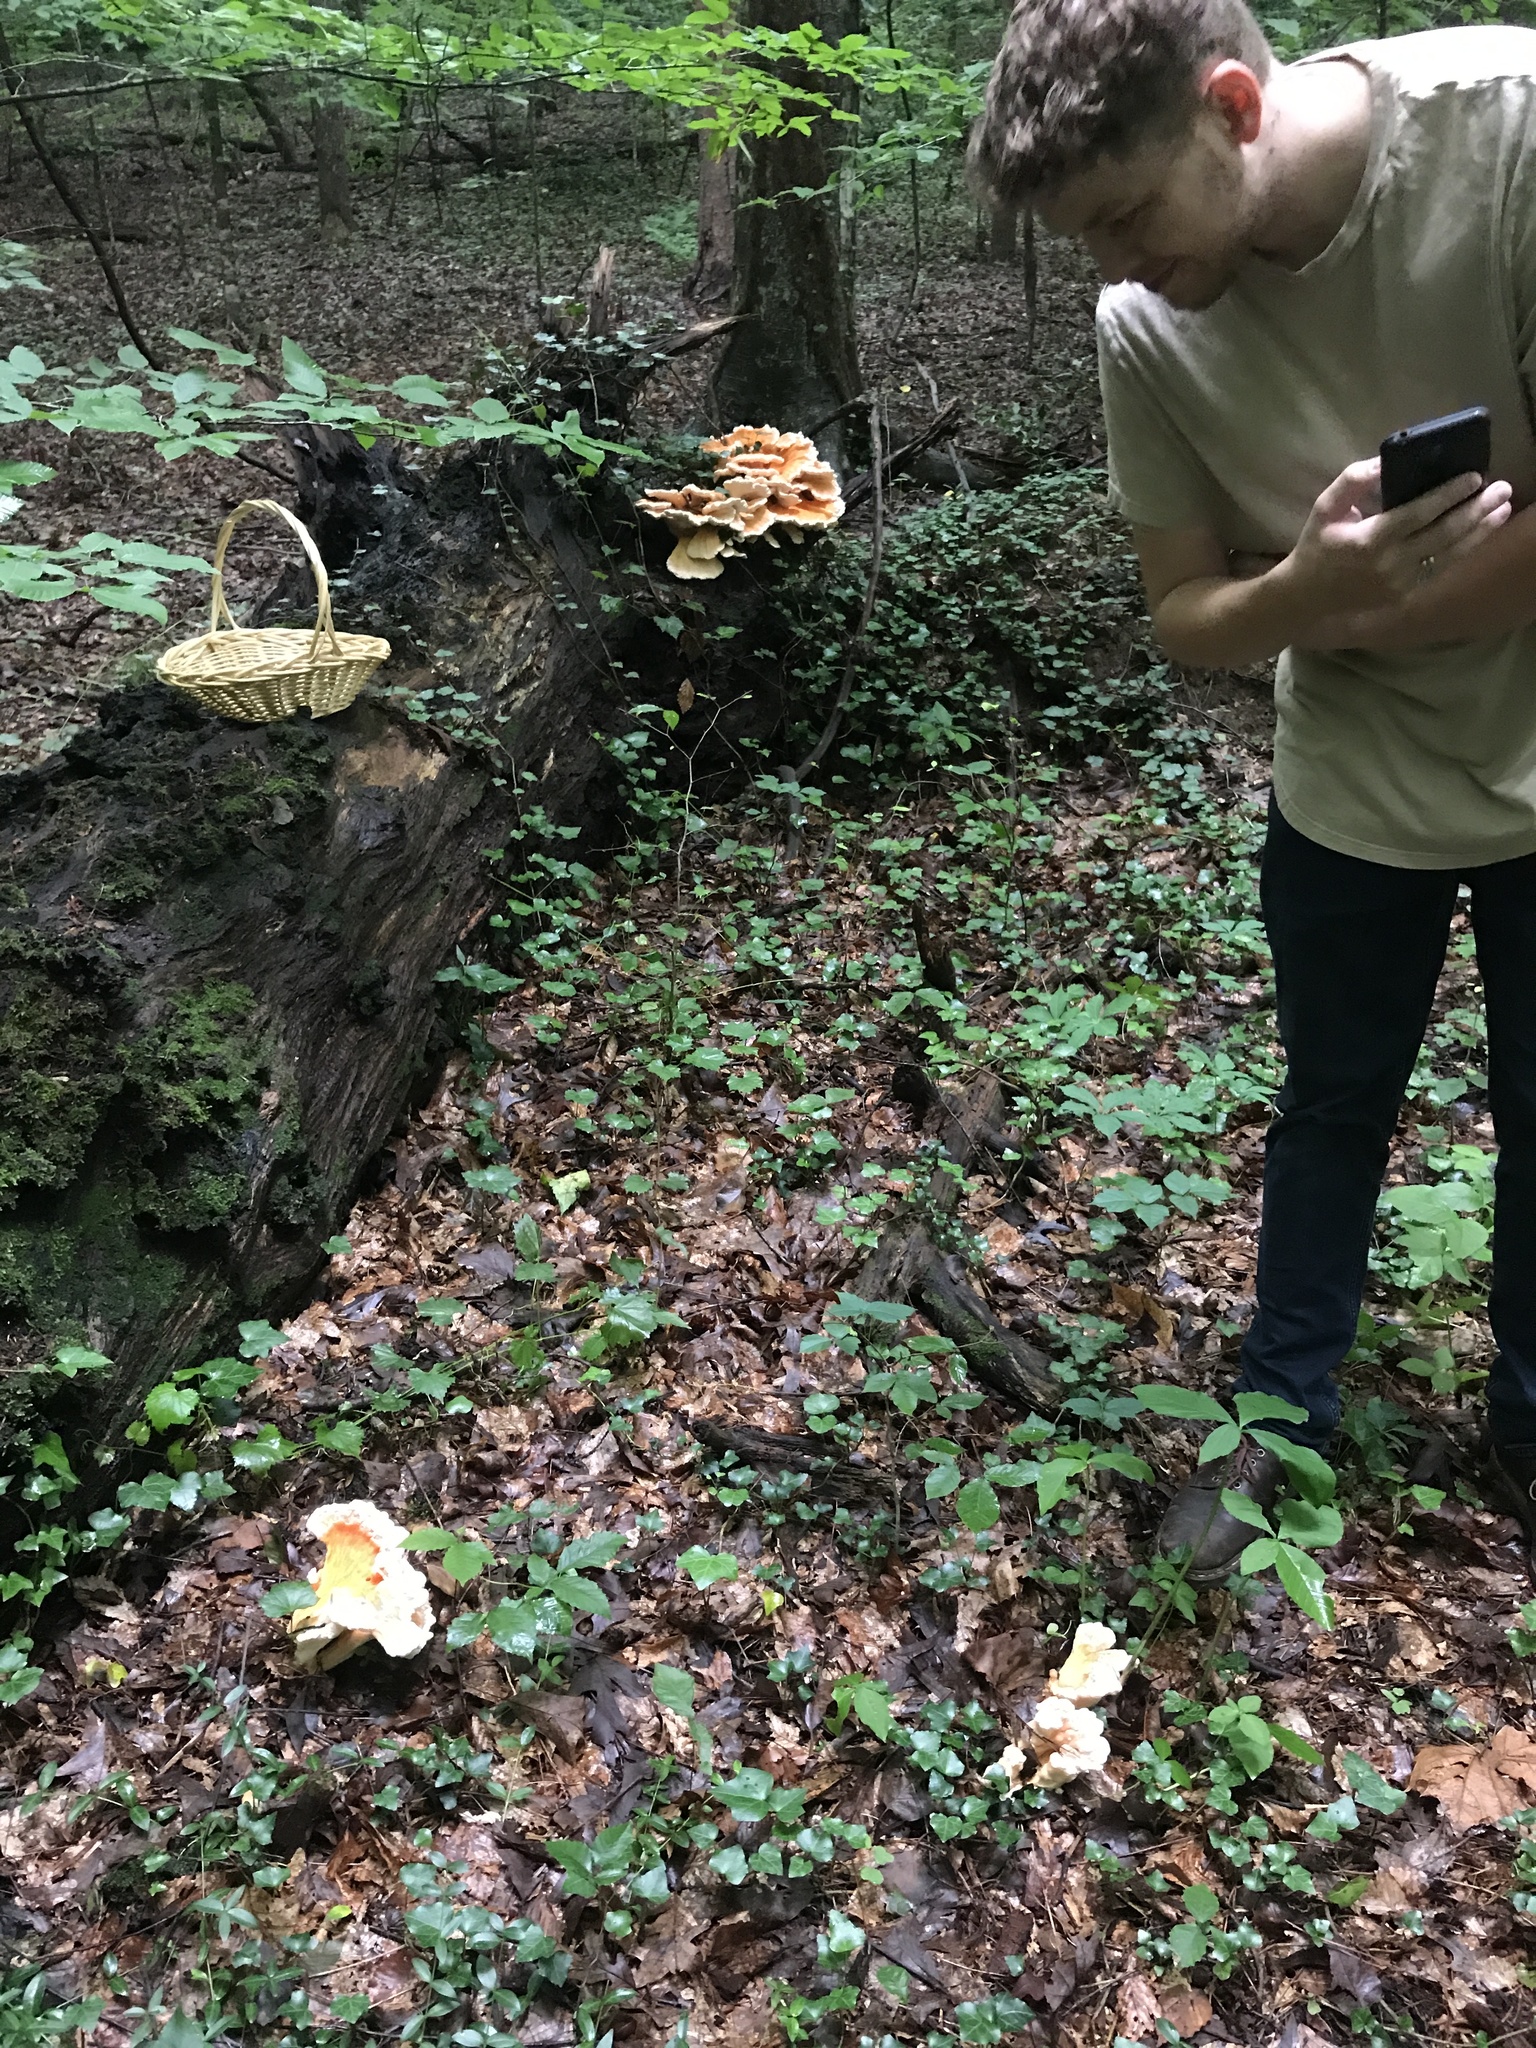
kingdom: Fungi
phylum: Basidiomycota
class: Agaricomycetes
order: Polyporales
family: Laetiporaceae
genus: Laetiporus
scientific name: Laetiporus sulphureus
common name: Chicken of the woods
